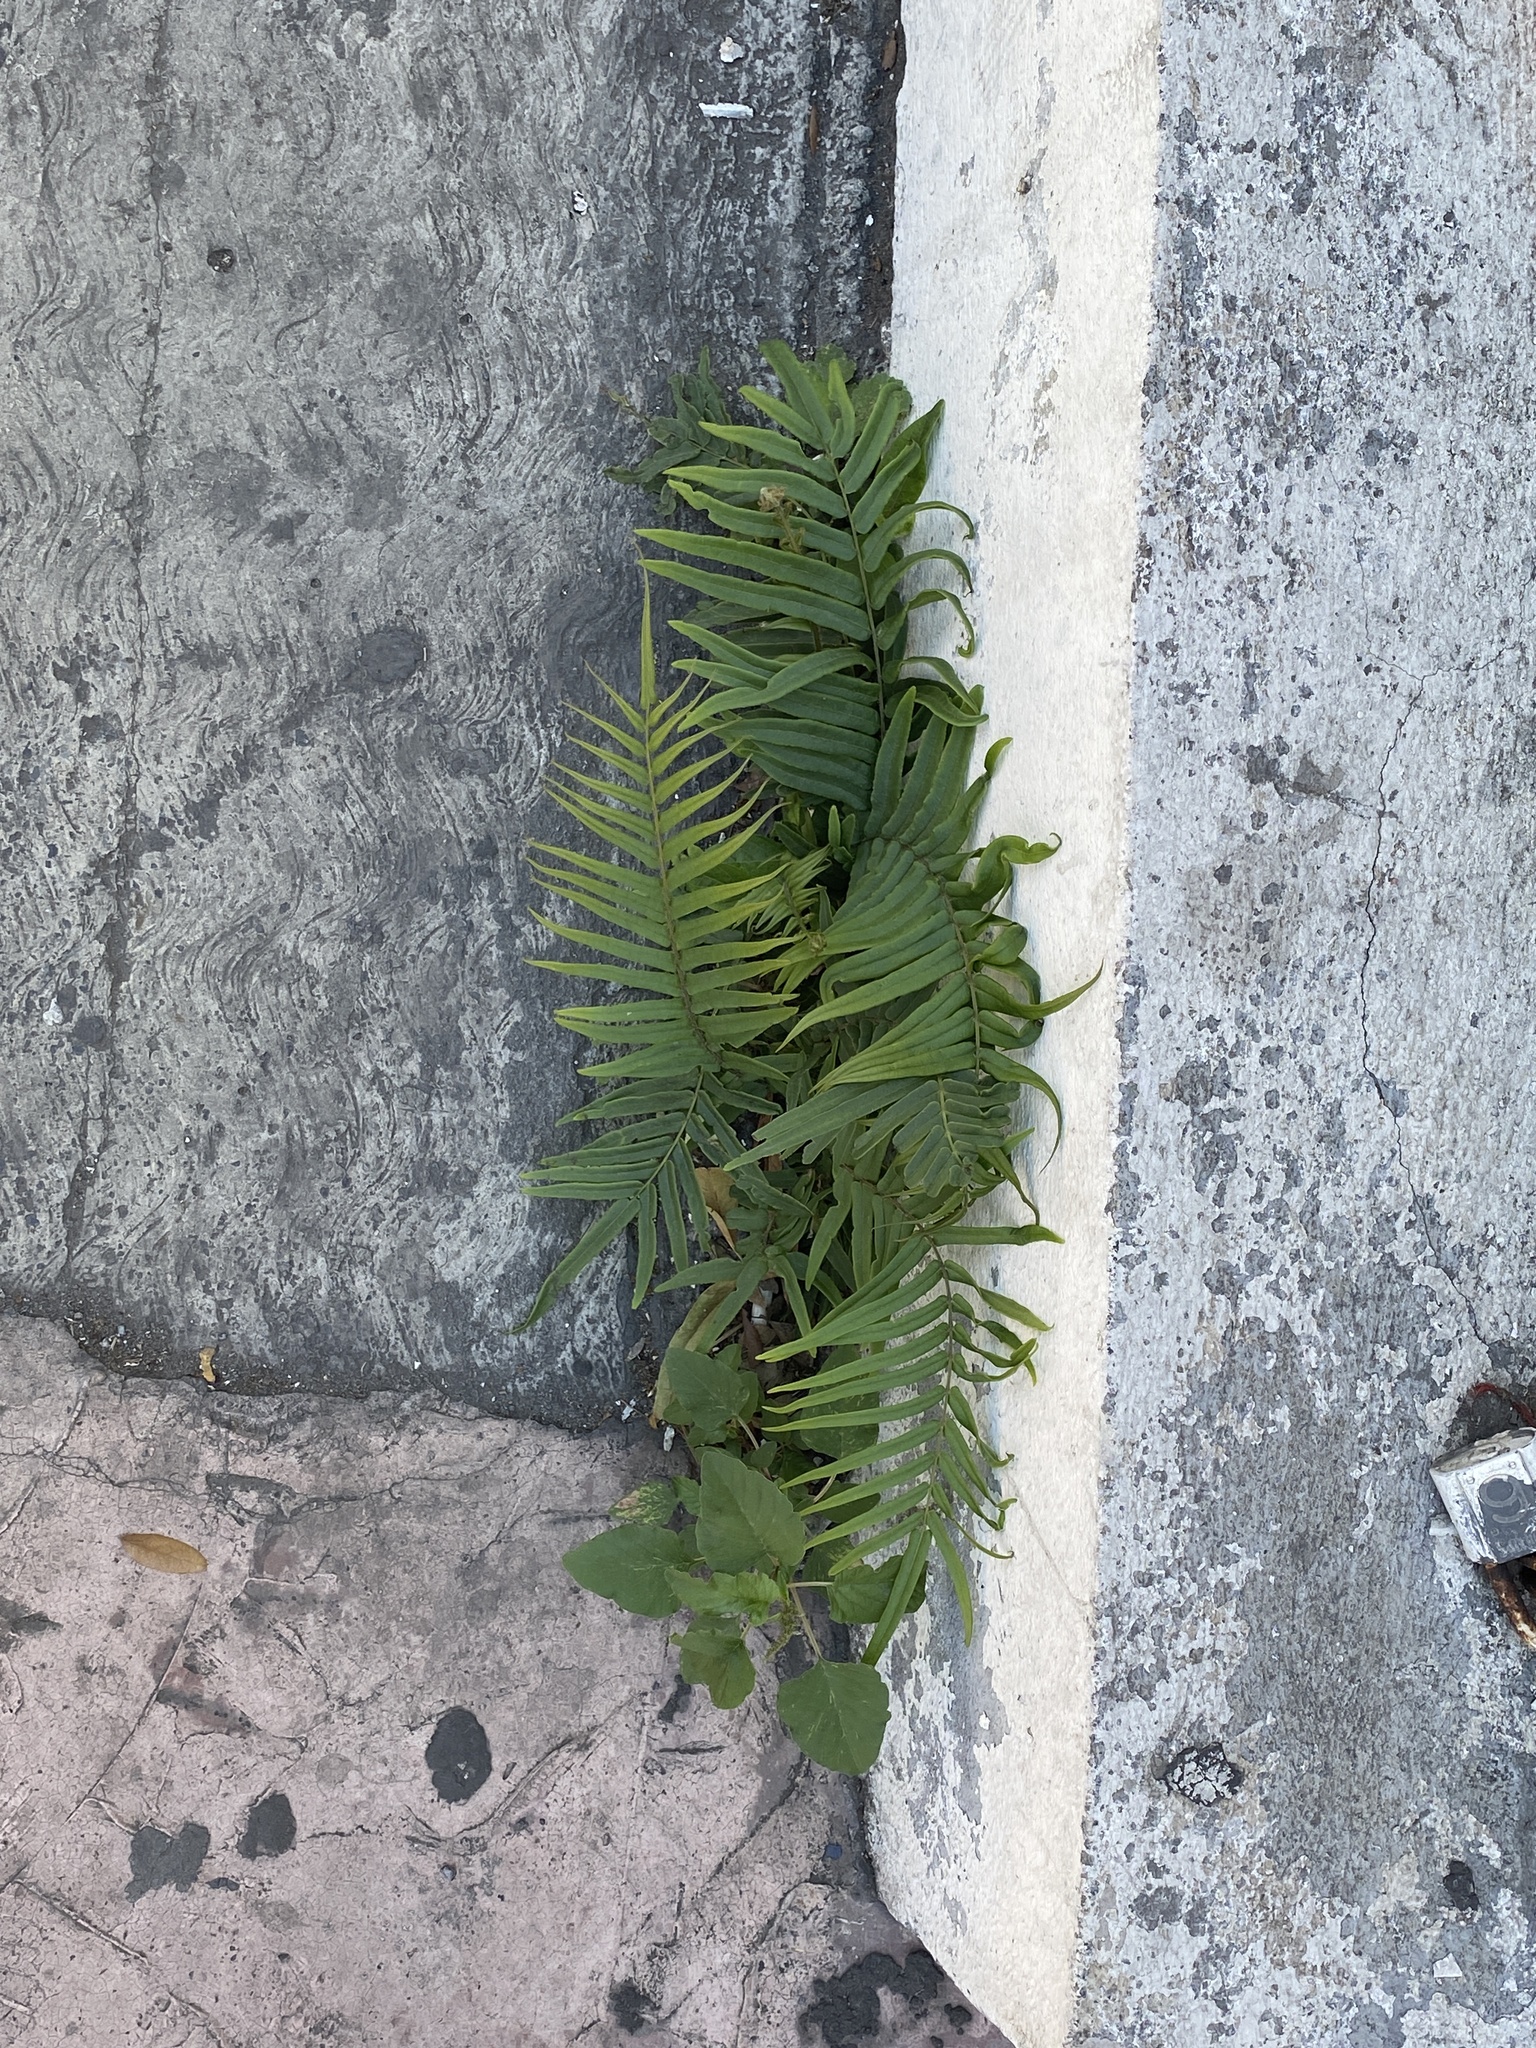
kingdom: Plantae
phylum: Tracheophyta
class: Polypodiopsida
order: Polypodiales
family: Pteridaceae
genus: Pteris
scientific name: Pteris vittata
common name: Ladder brake
